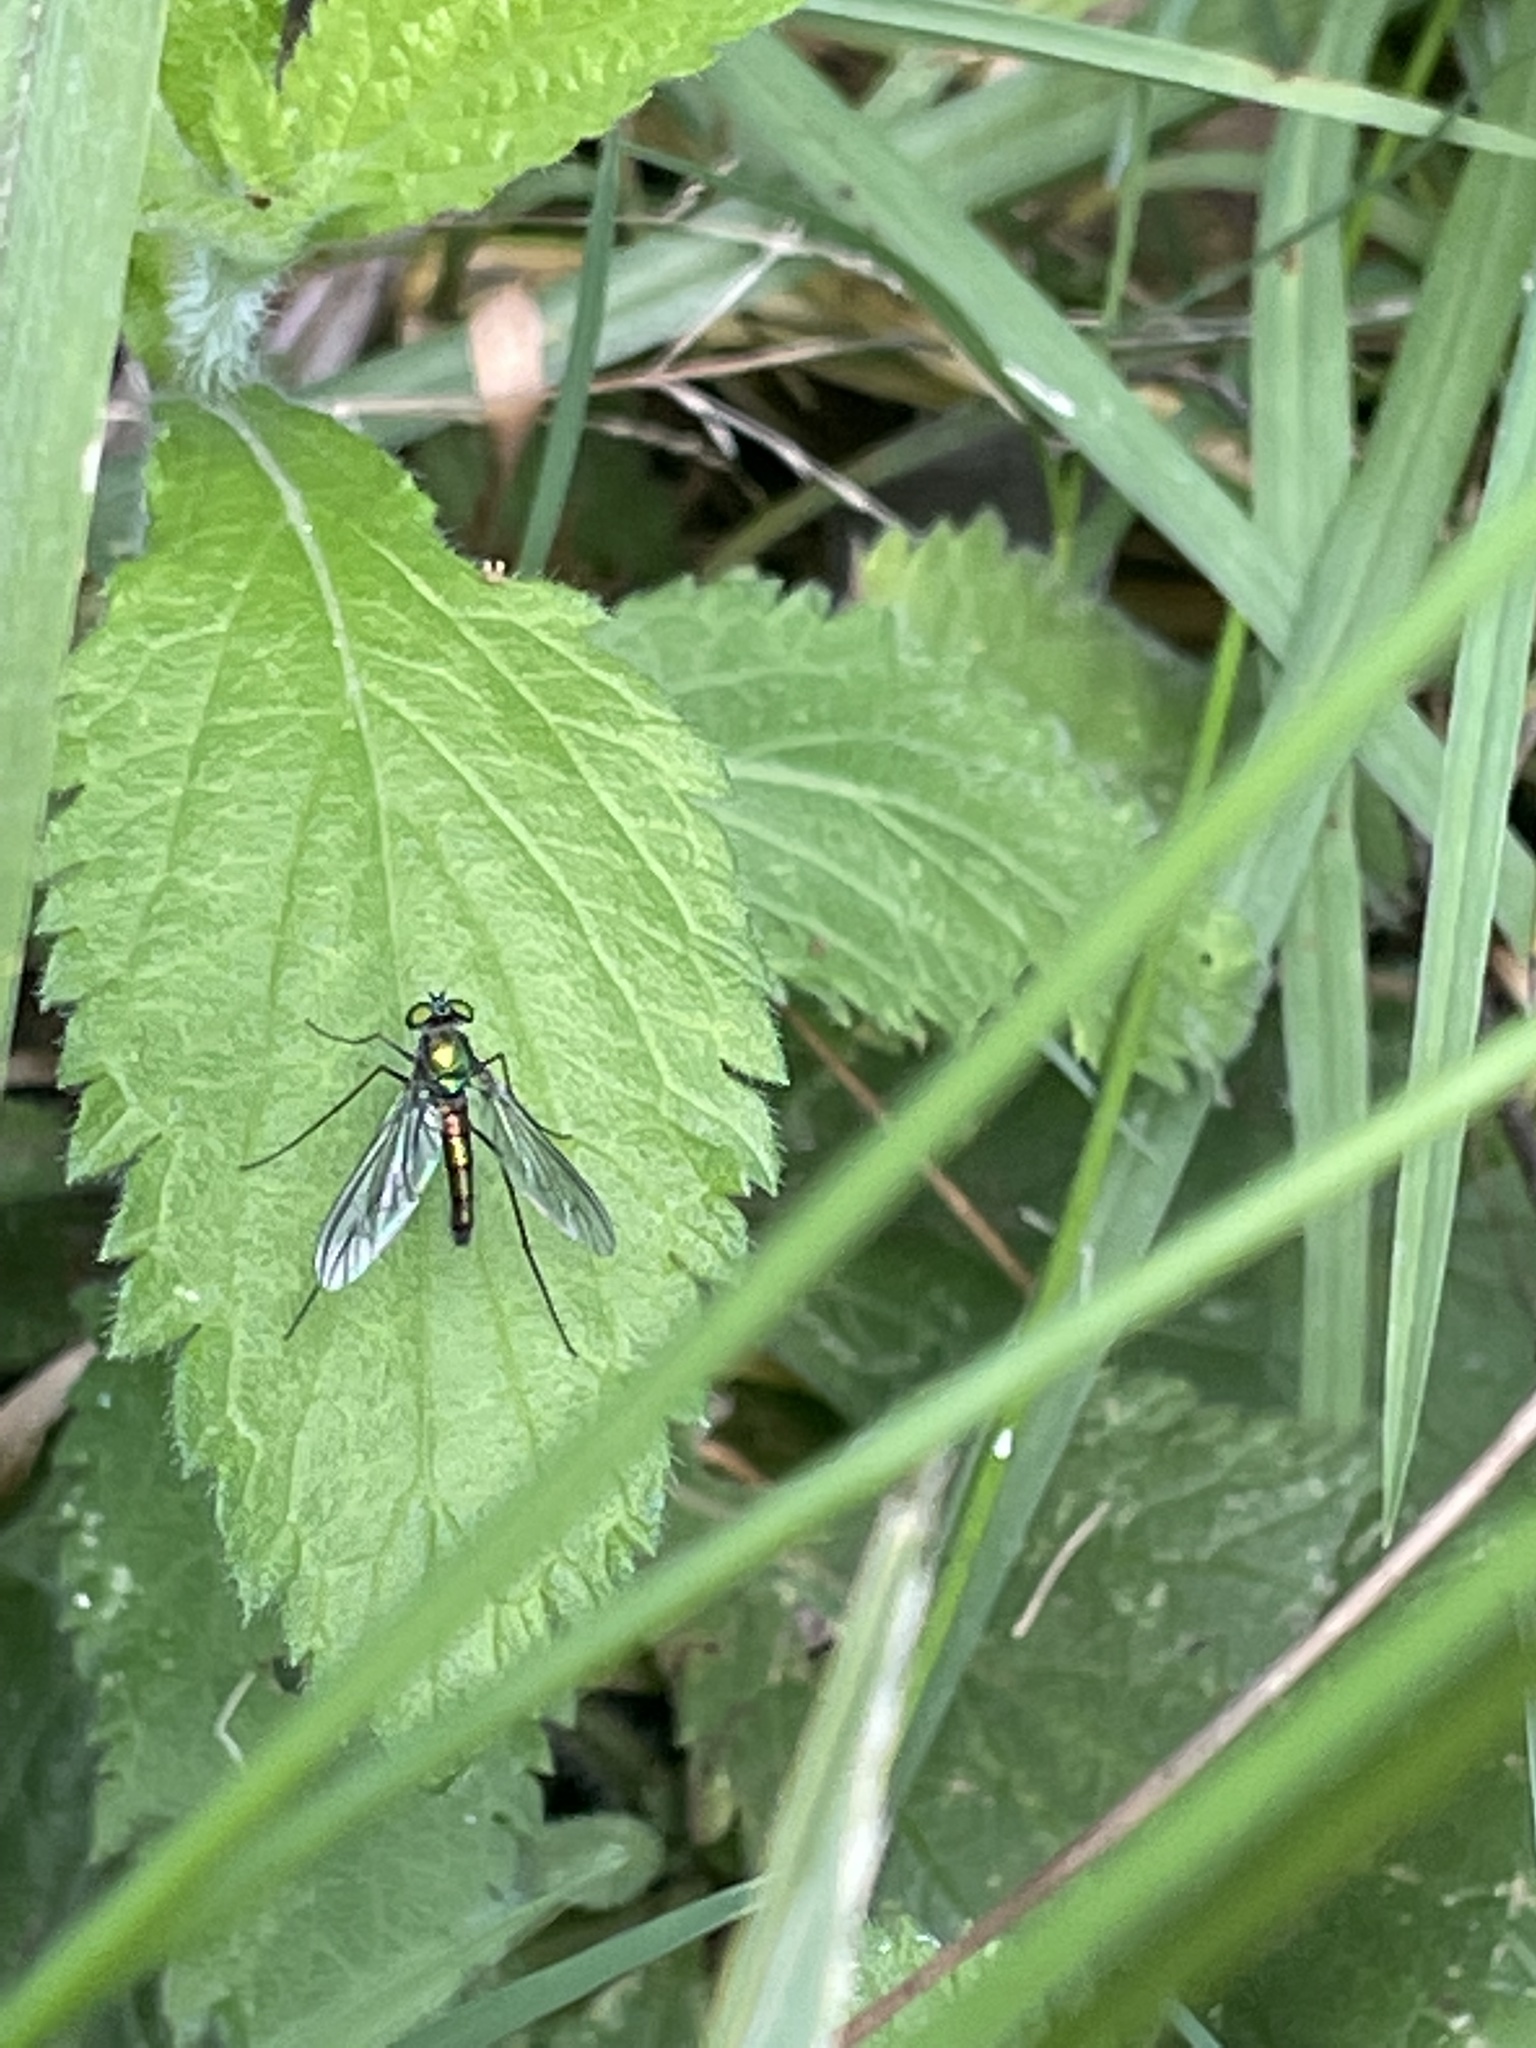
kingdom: Animalia
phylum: Arthropoda
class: Insecta
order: Diptera
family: Dolichopodidae
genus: Heteropsilopus
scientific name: Heteropsilopus cingulipes
